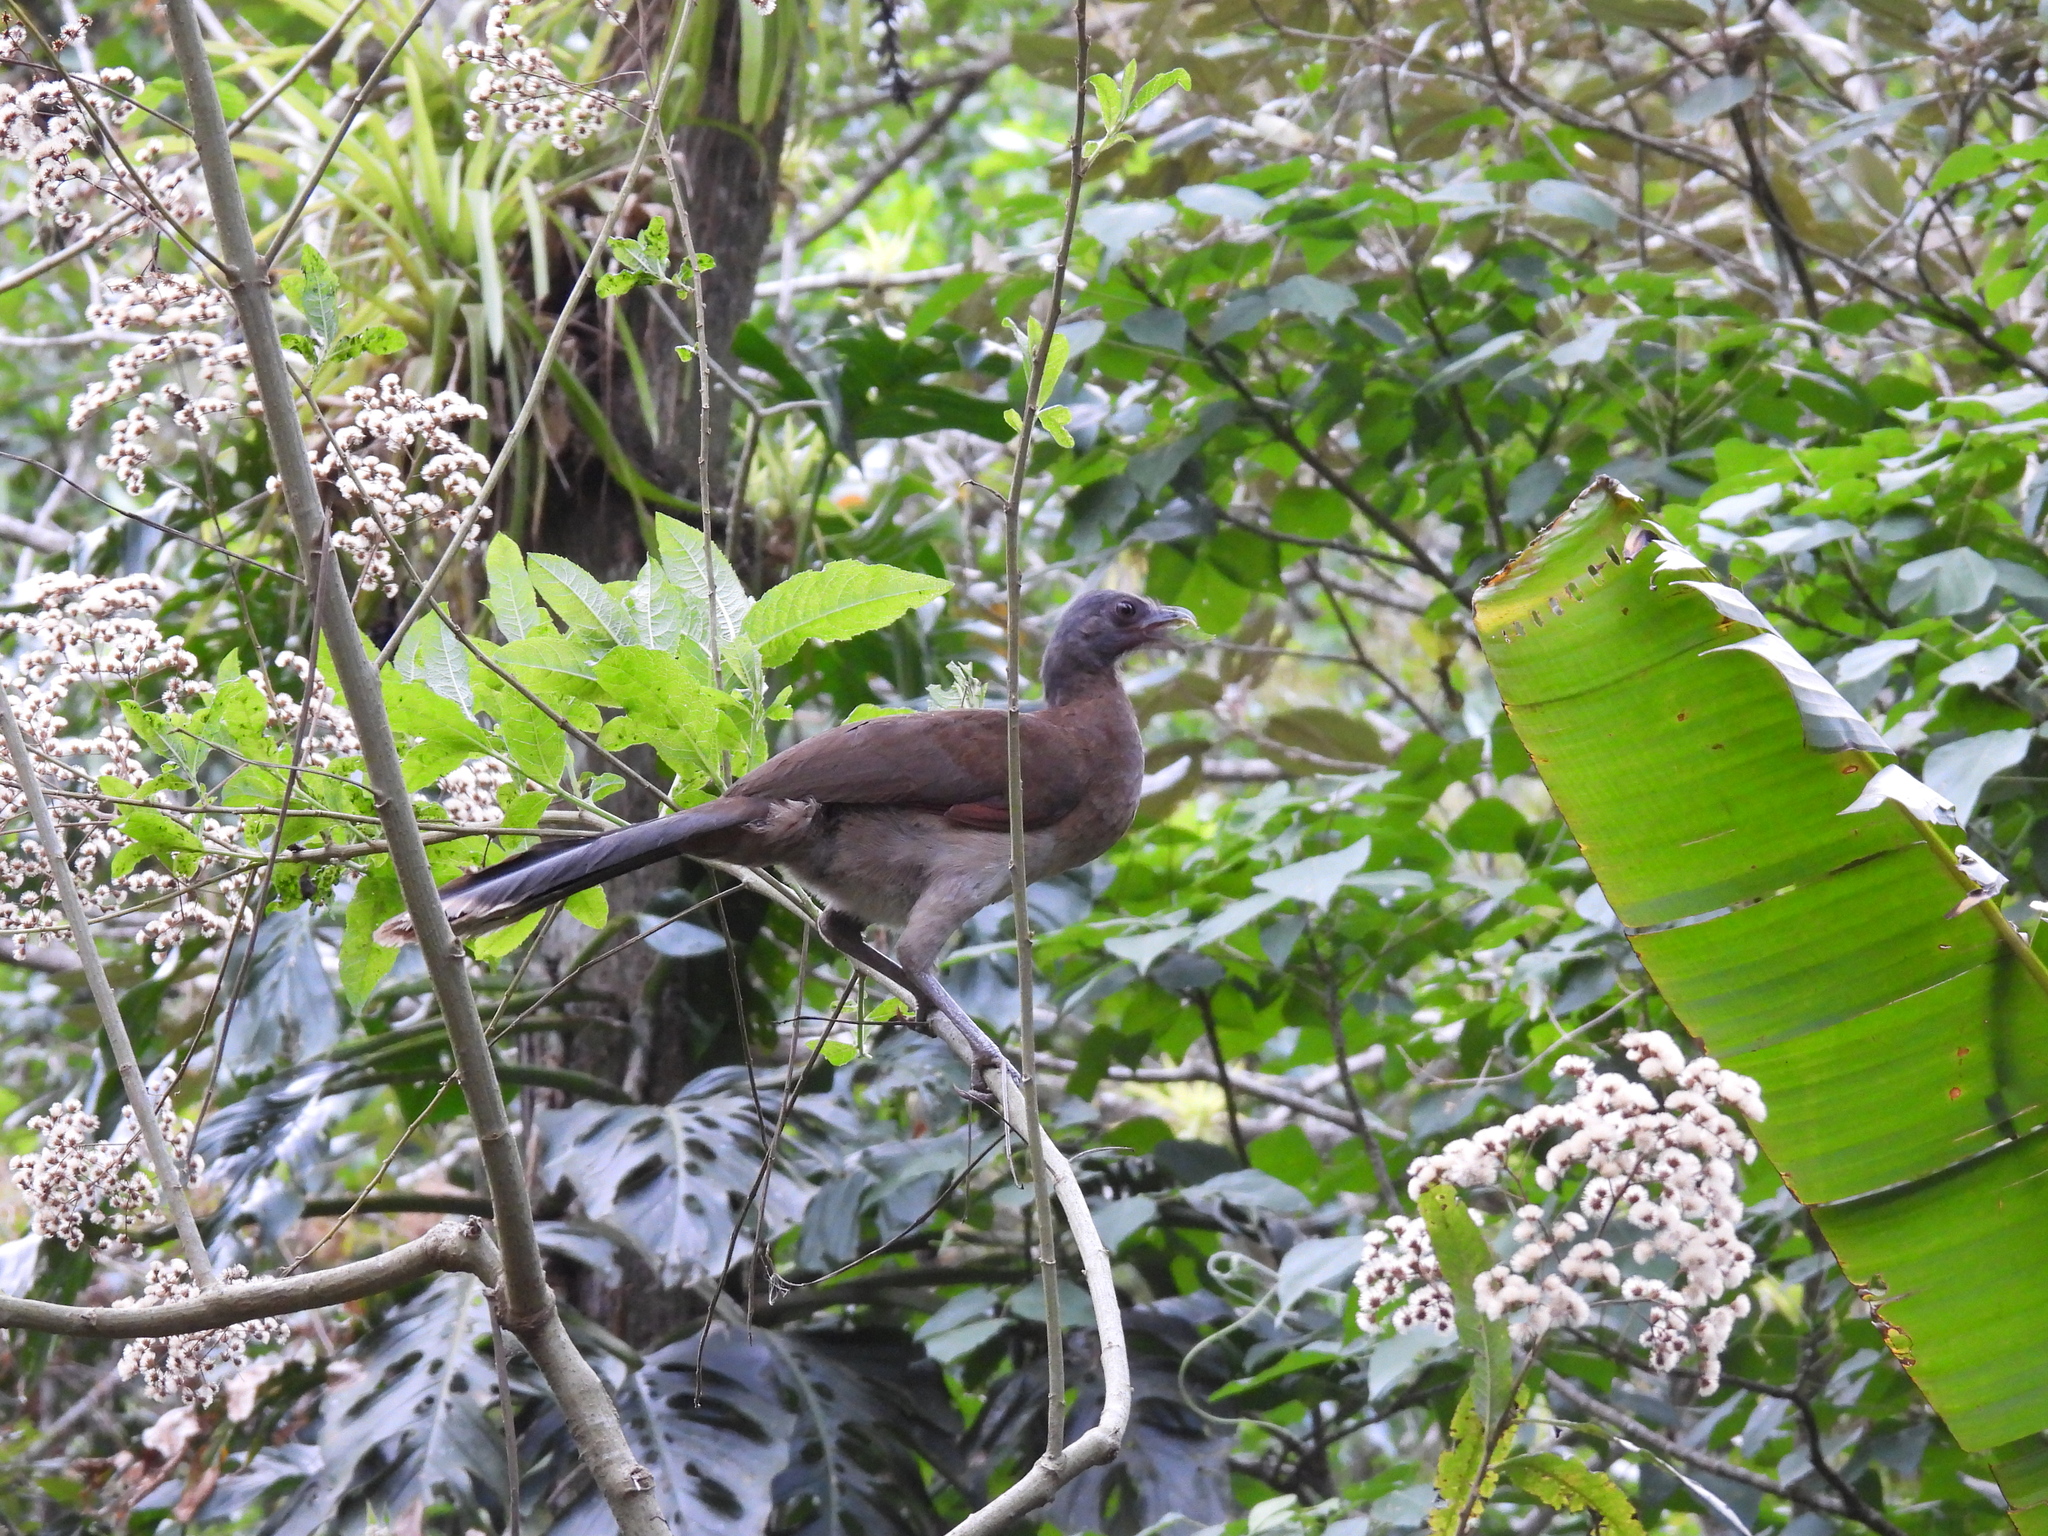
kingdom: Animalia
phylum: Chordata
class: Aves
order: Galliformes
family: Cracidae
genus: Ortalis
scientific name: Ortalis cinereiceps
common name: Grey-headed chachalaca
